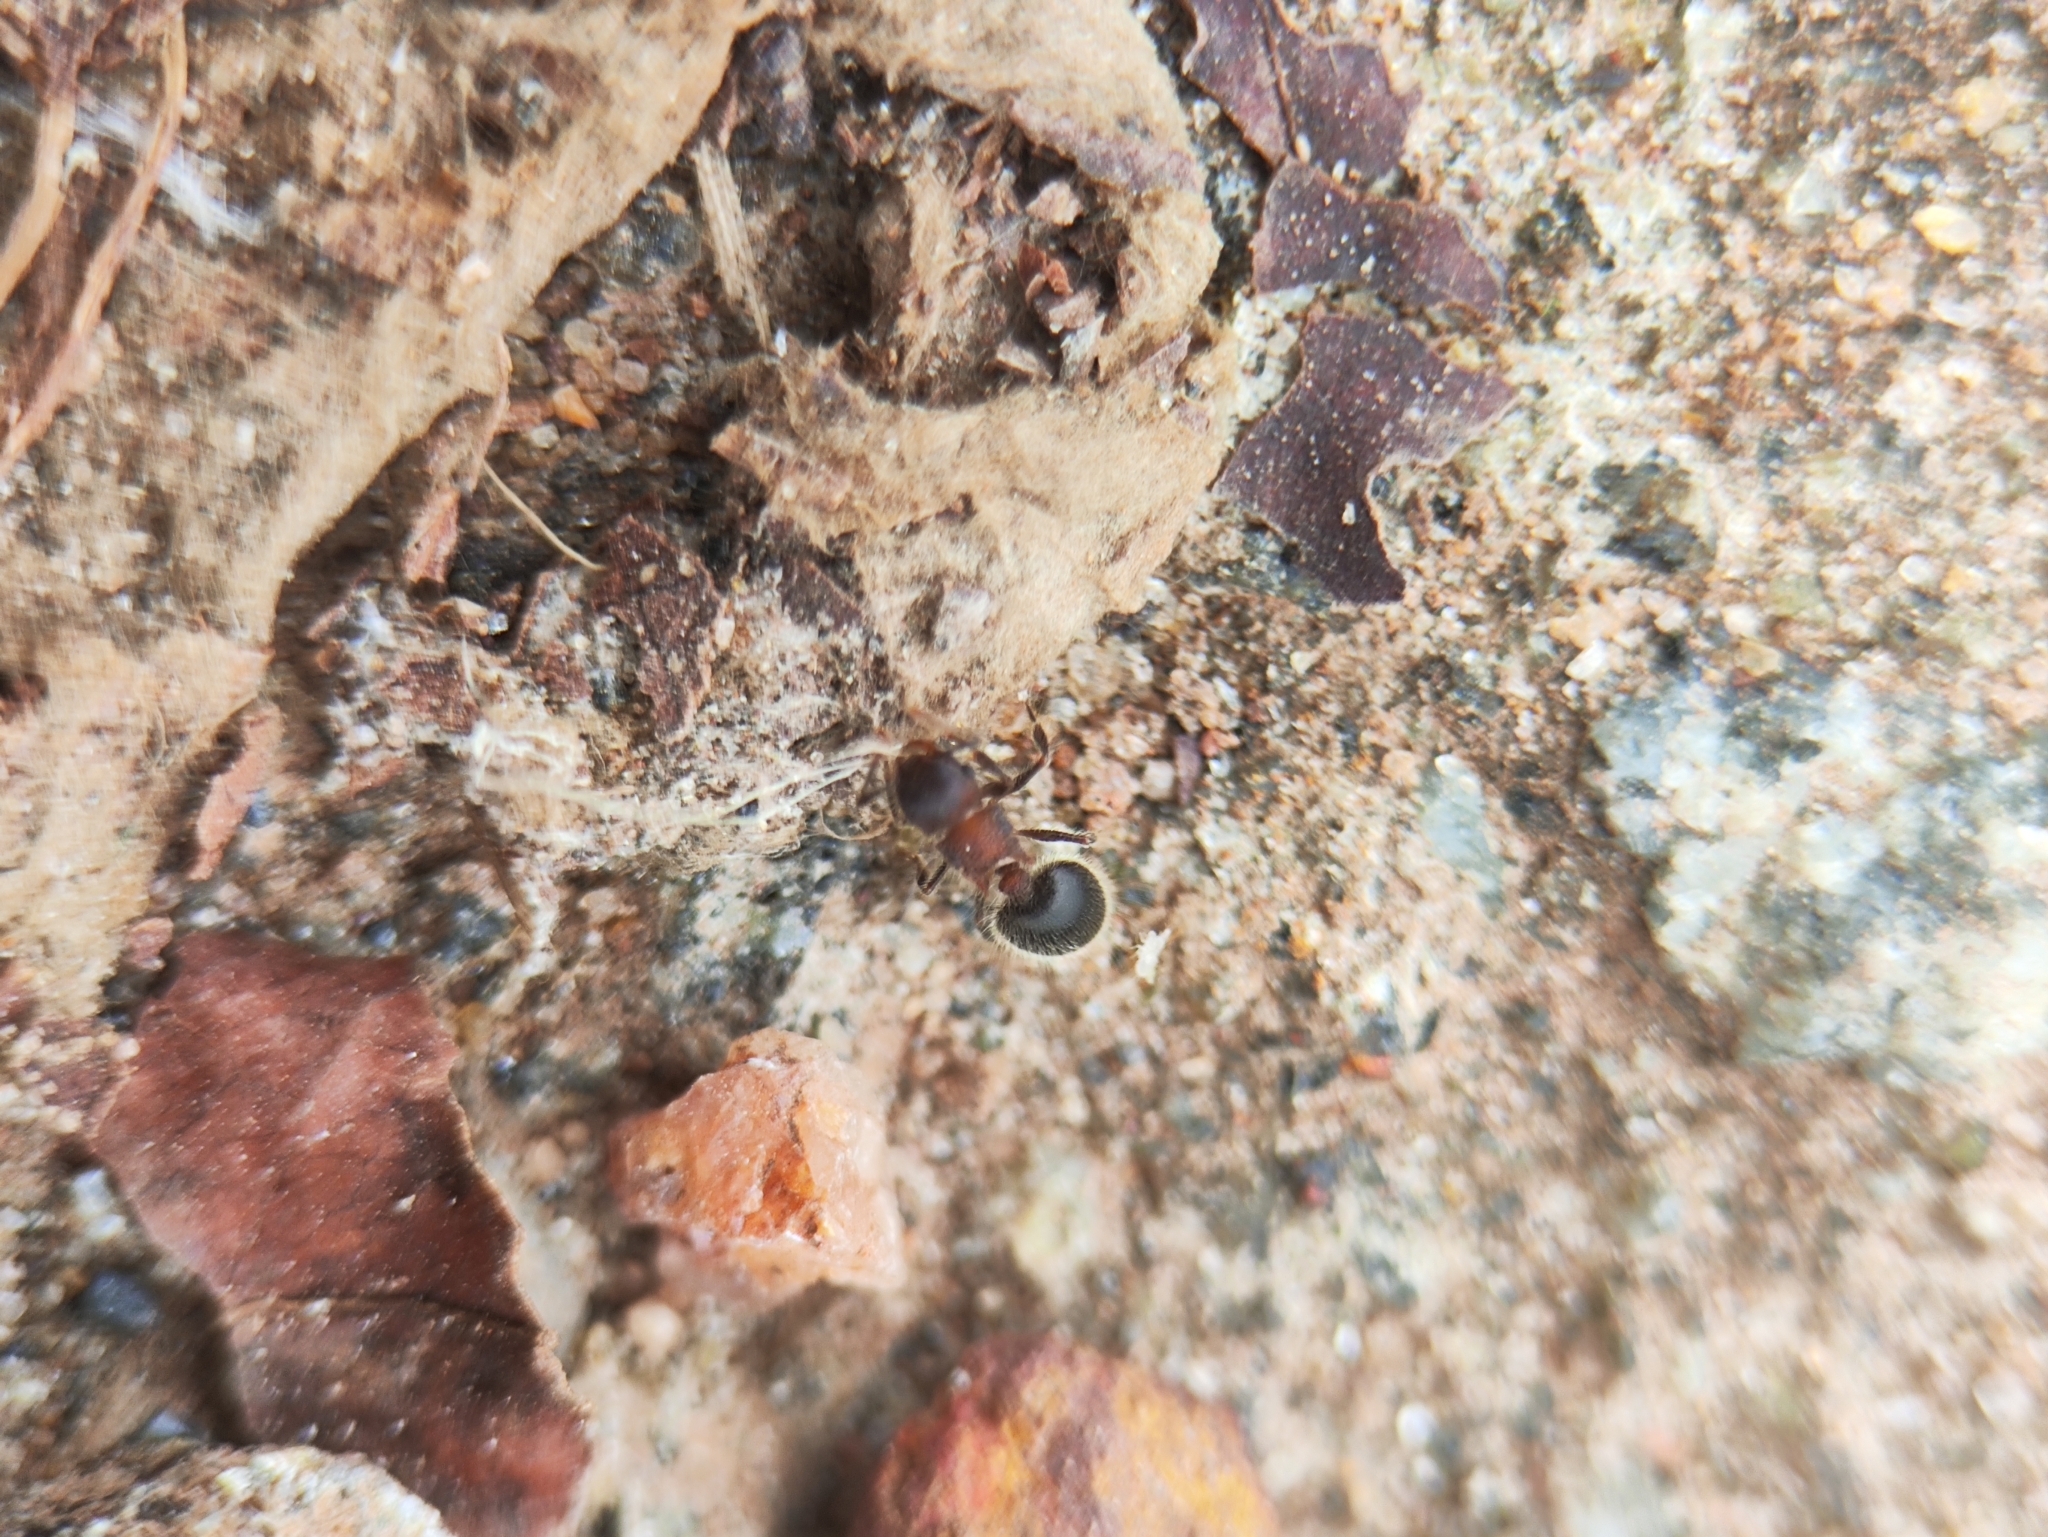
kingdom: Animalia
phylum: Arthropoda
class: Insecta
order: Hymenoptera
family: Formicidae
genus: Meranoplus
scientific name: Meranoplus bicolor
